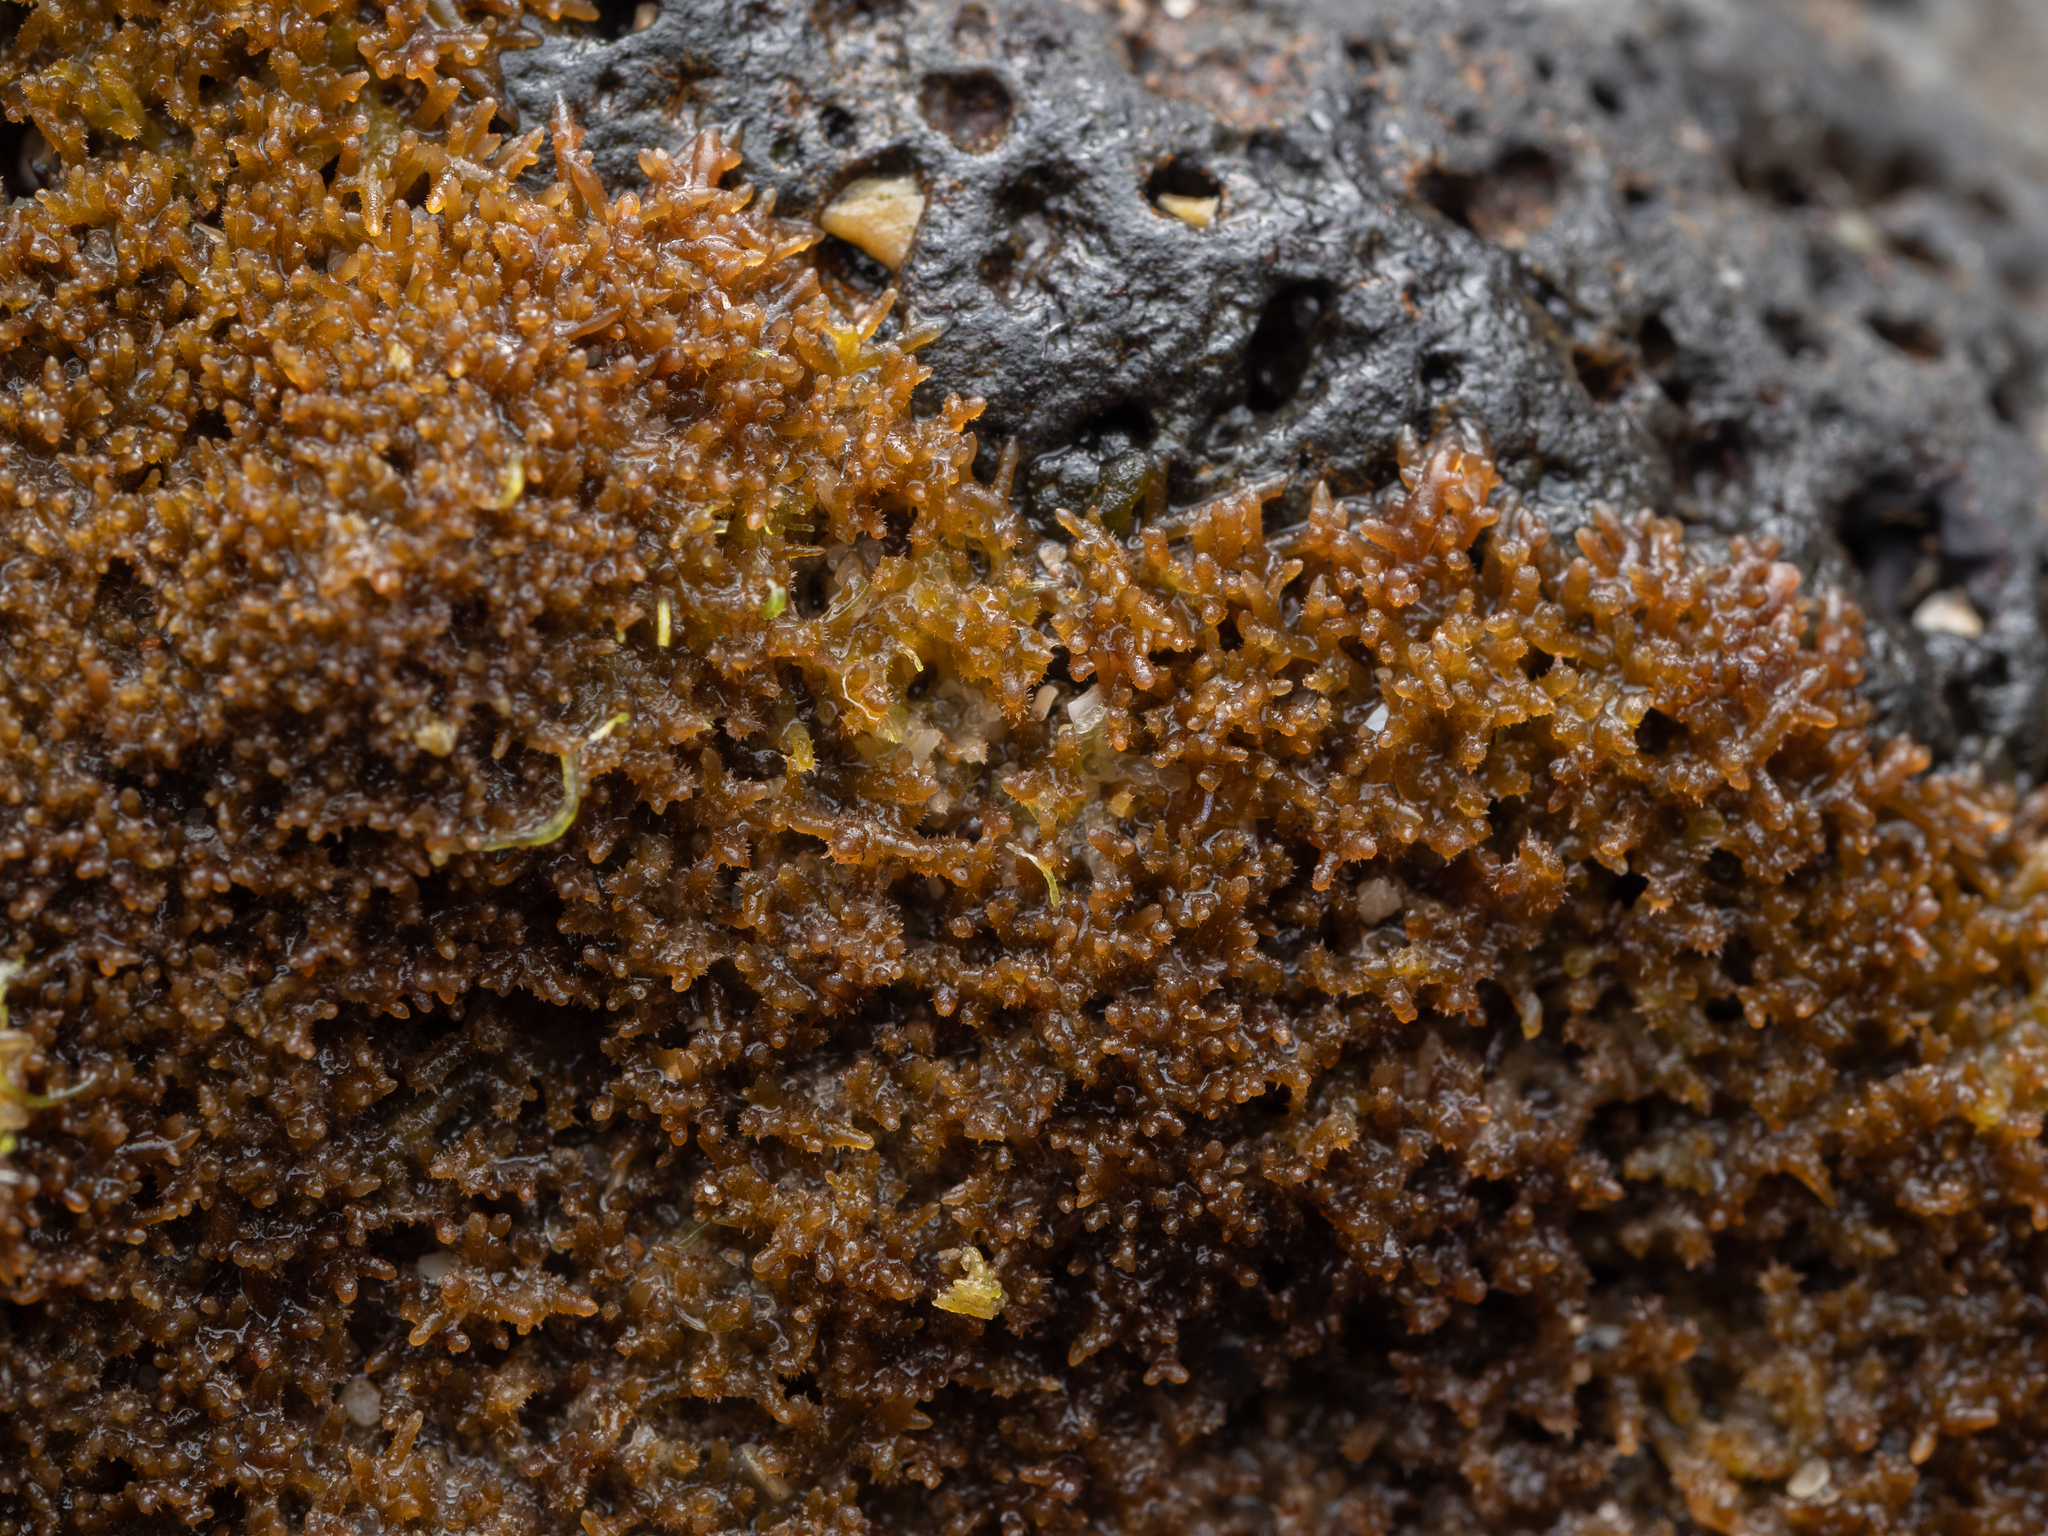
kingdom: Plantae
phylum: Rhodophyta
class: Florideophyceae
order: Gelidiales
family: Gelidiaceae
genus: Capreolia
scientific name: Capreolia implexa
